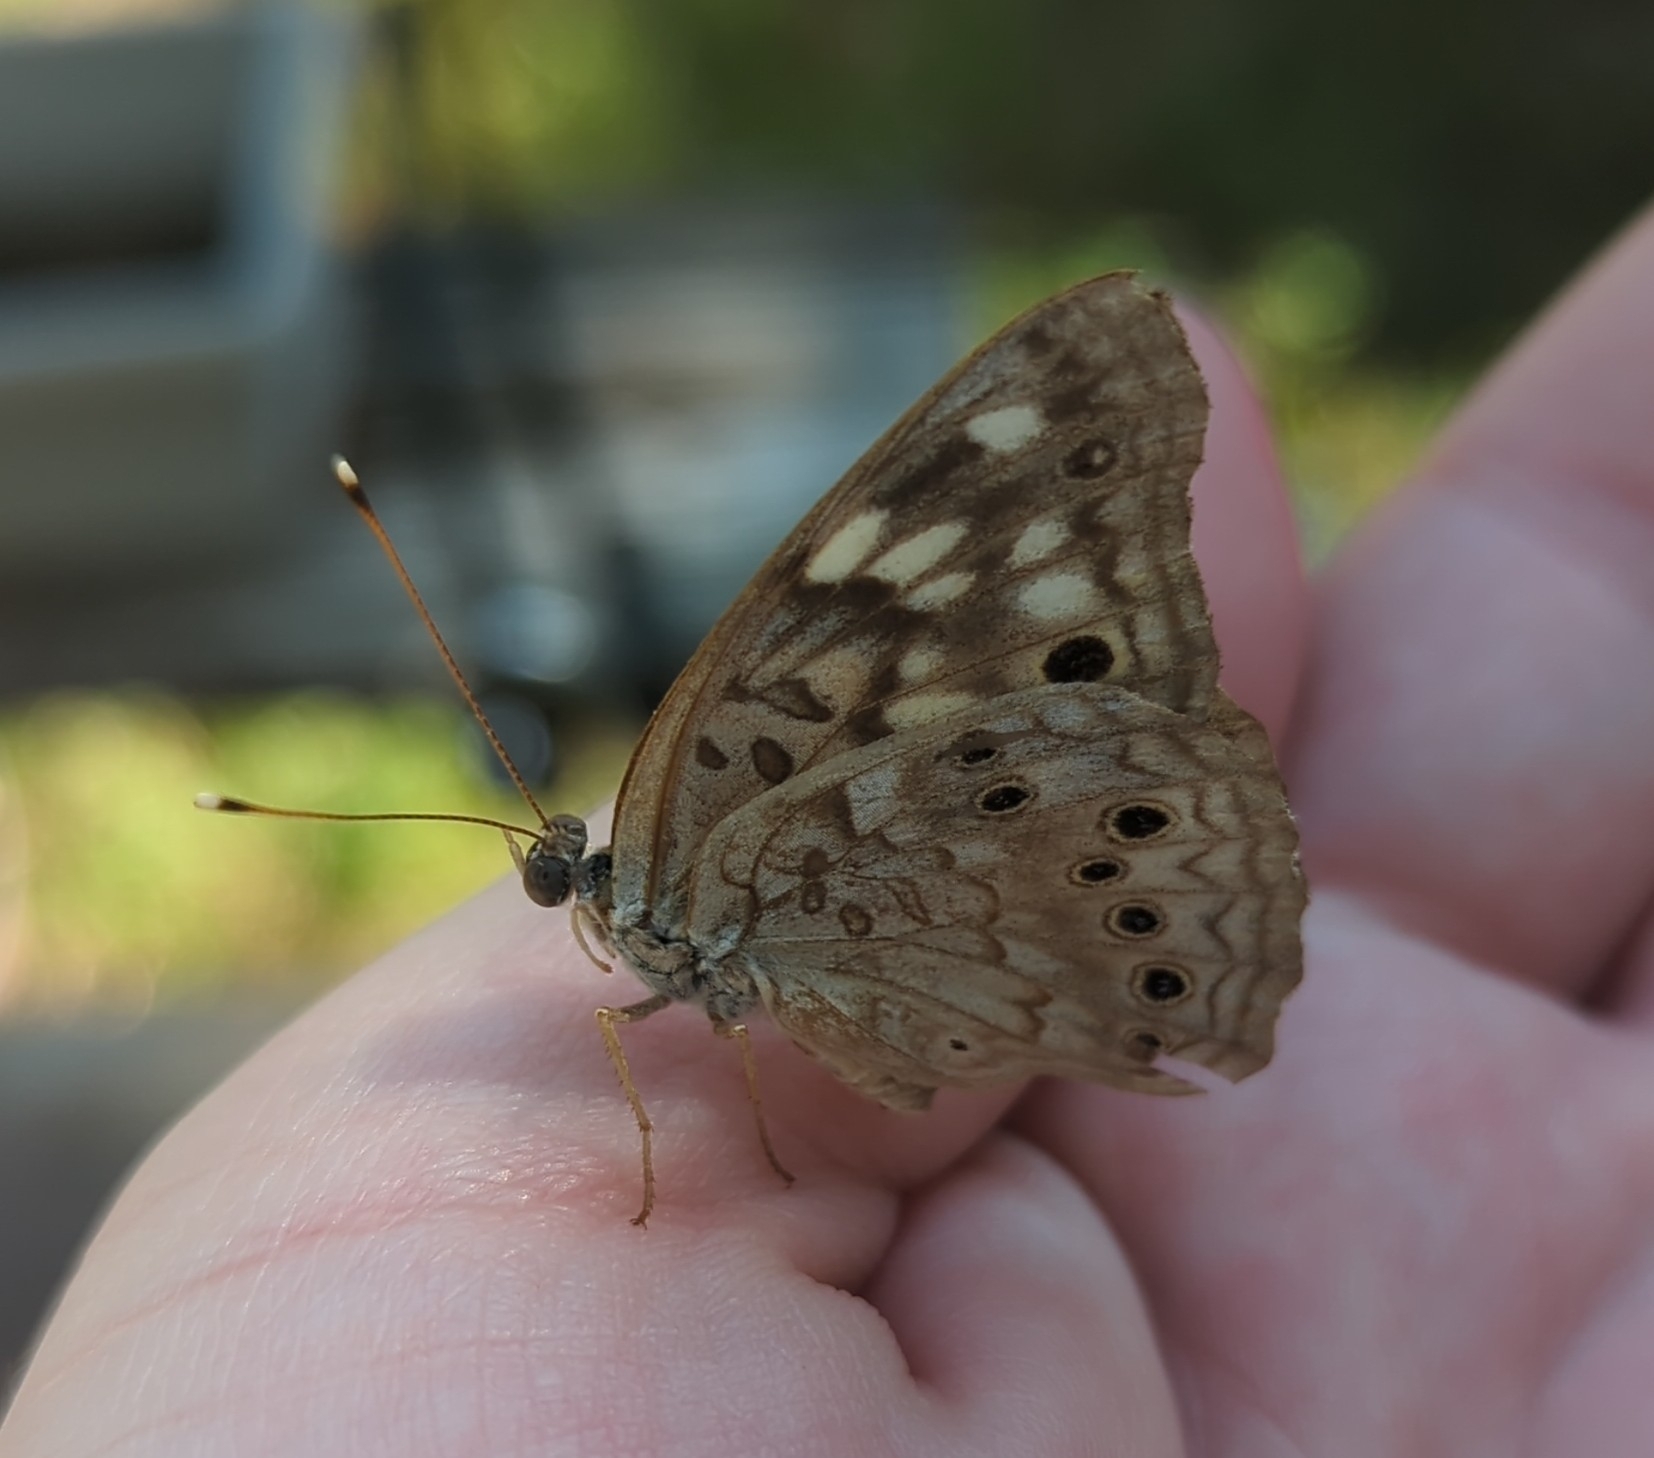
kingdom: Animalia
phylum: Arthropoda
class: Insecta
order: Lepidoptera
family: Nymphalidae
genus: Asterocampa
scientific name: Asterocampa celtis
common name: Hackberry emperor
